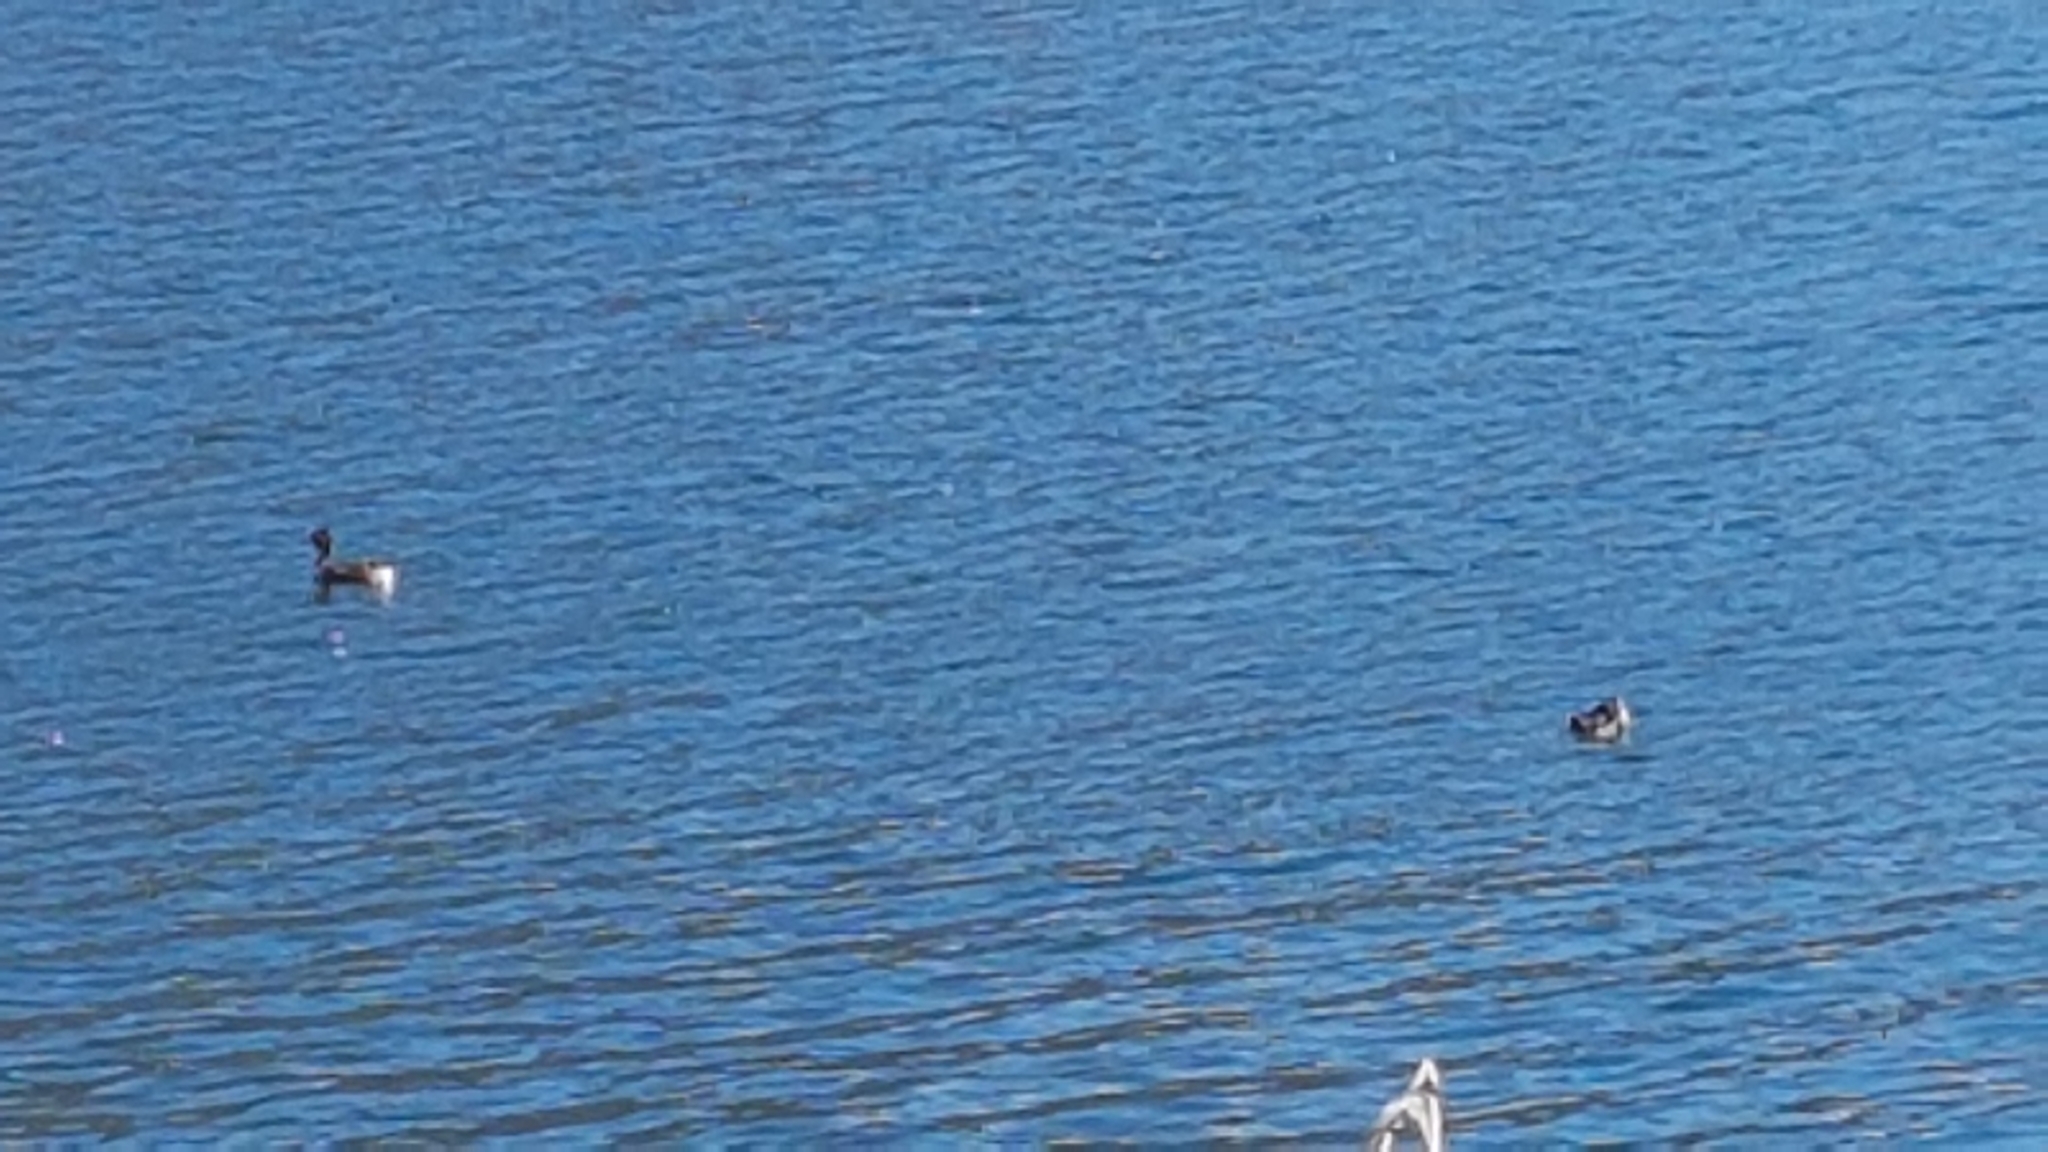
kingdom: Animalia
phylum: Chordata
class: Aves
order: Podicipediformes
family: Podicipedidae
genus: Podiceps
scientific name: Podiceps cristatus
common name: Great crested grebe
